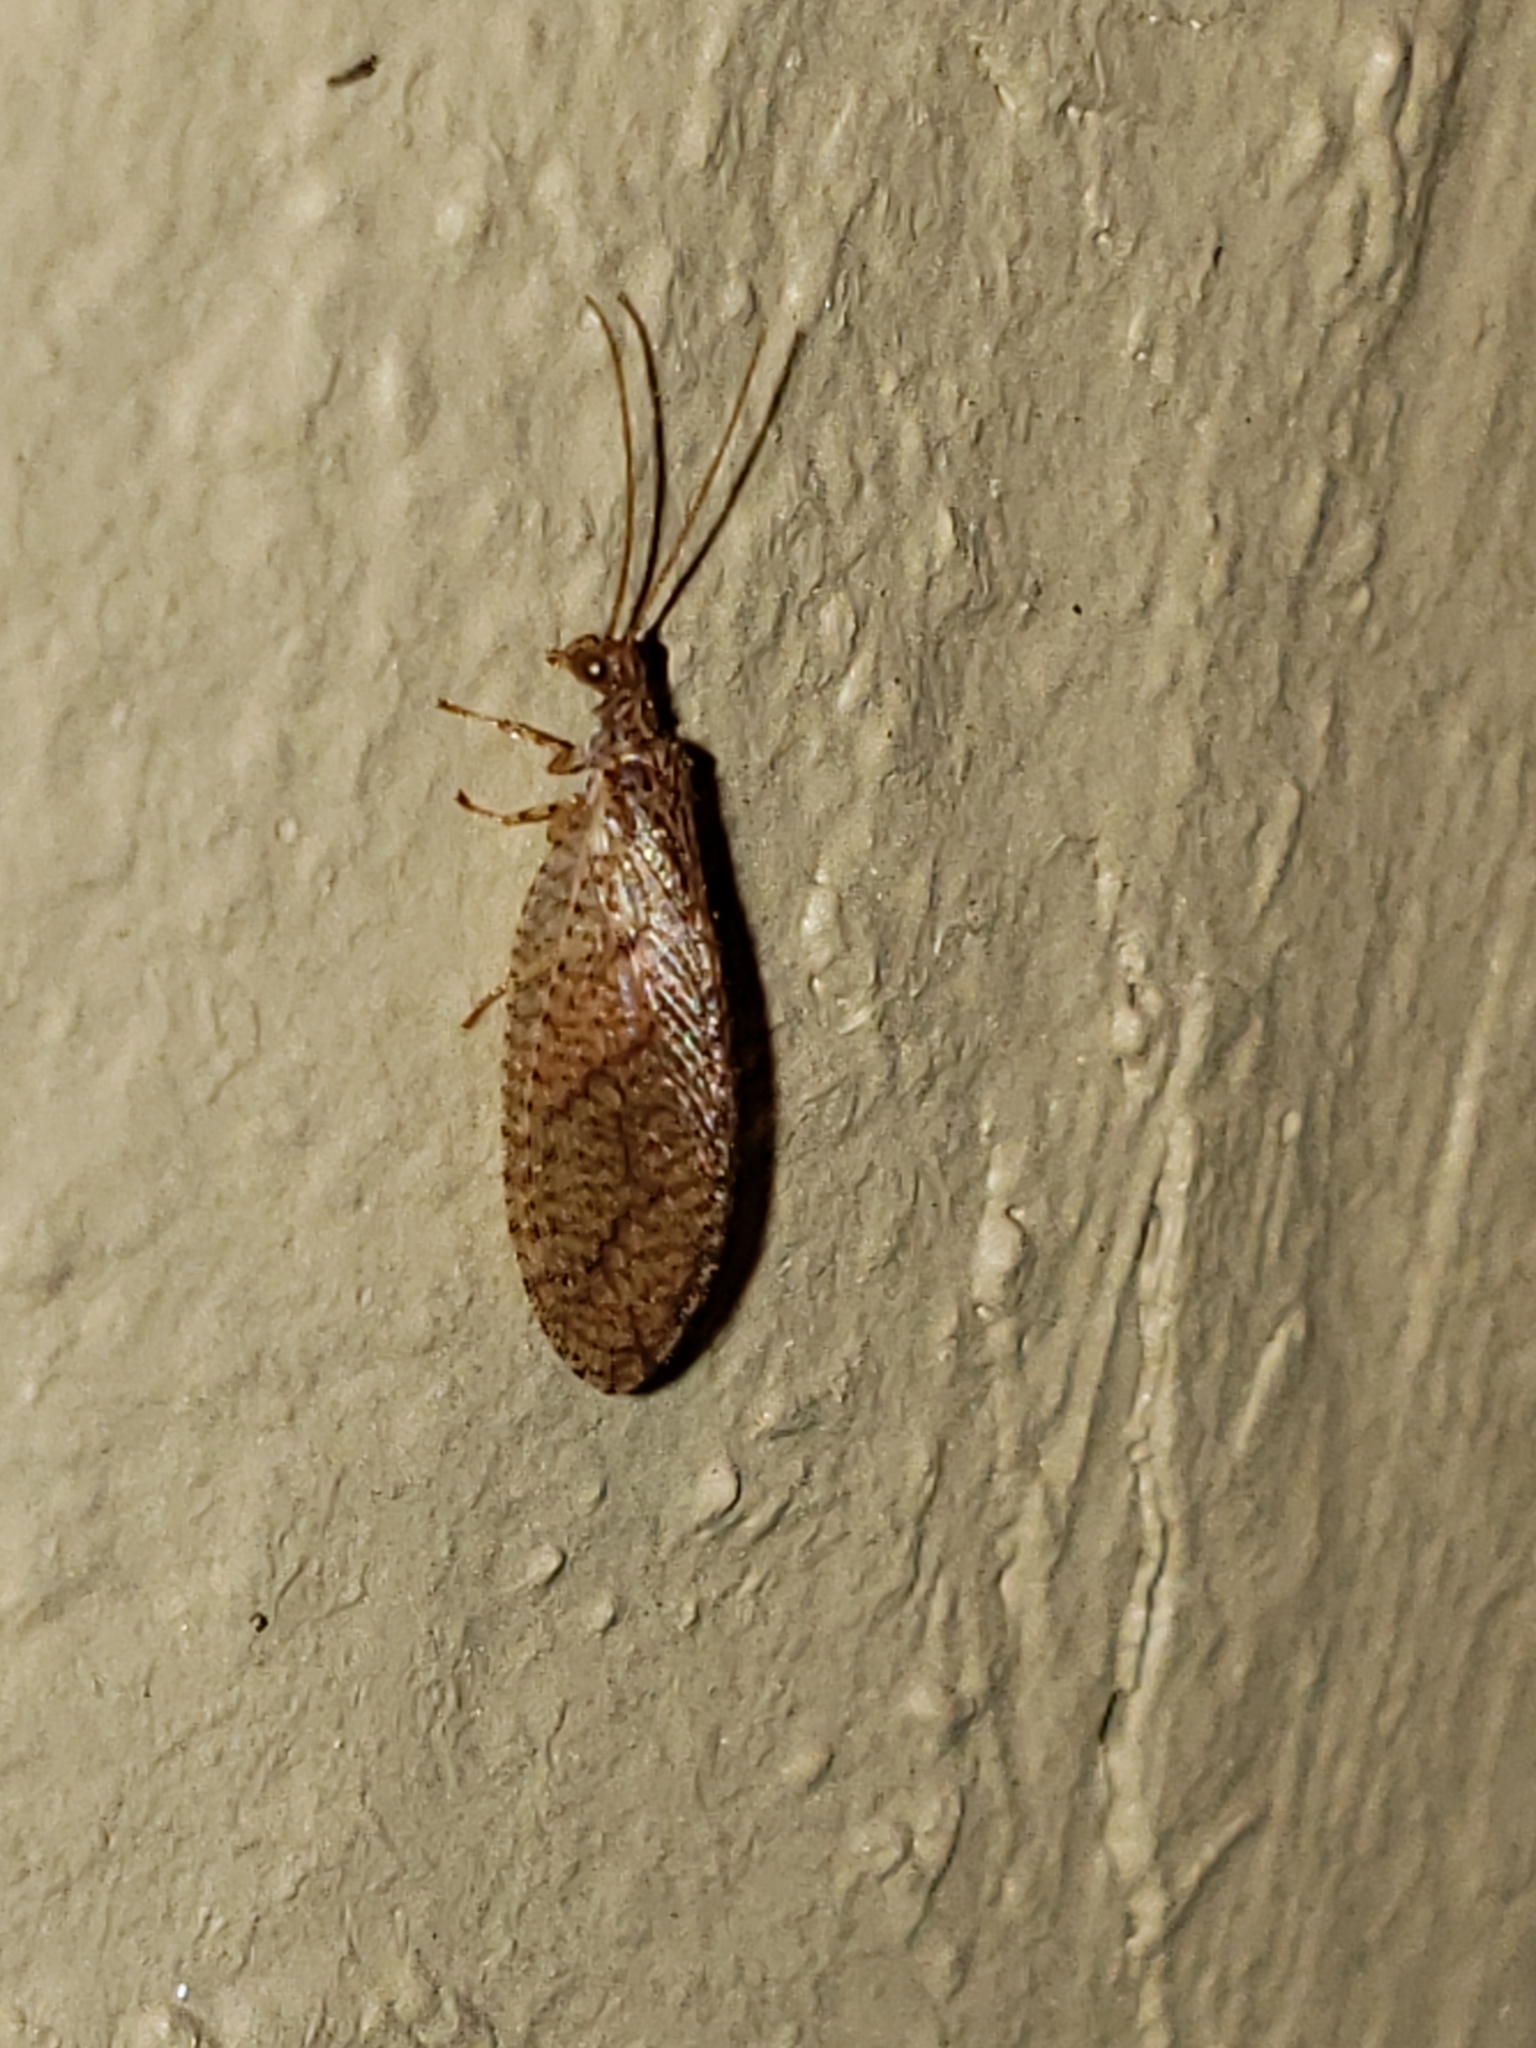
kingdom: Animalia
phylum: Arthropoda
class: Insecta
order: Neuroptera
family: Hemerobiidae
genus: Micromus
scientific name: Micromus posticus
